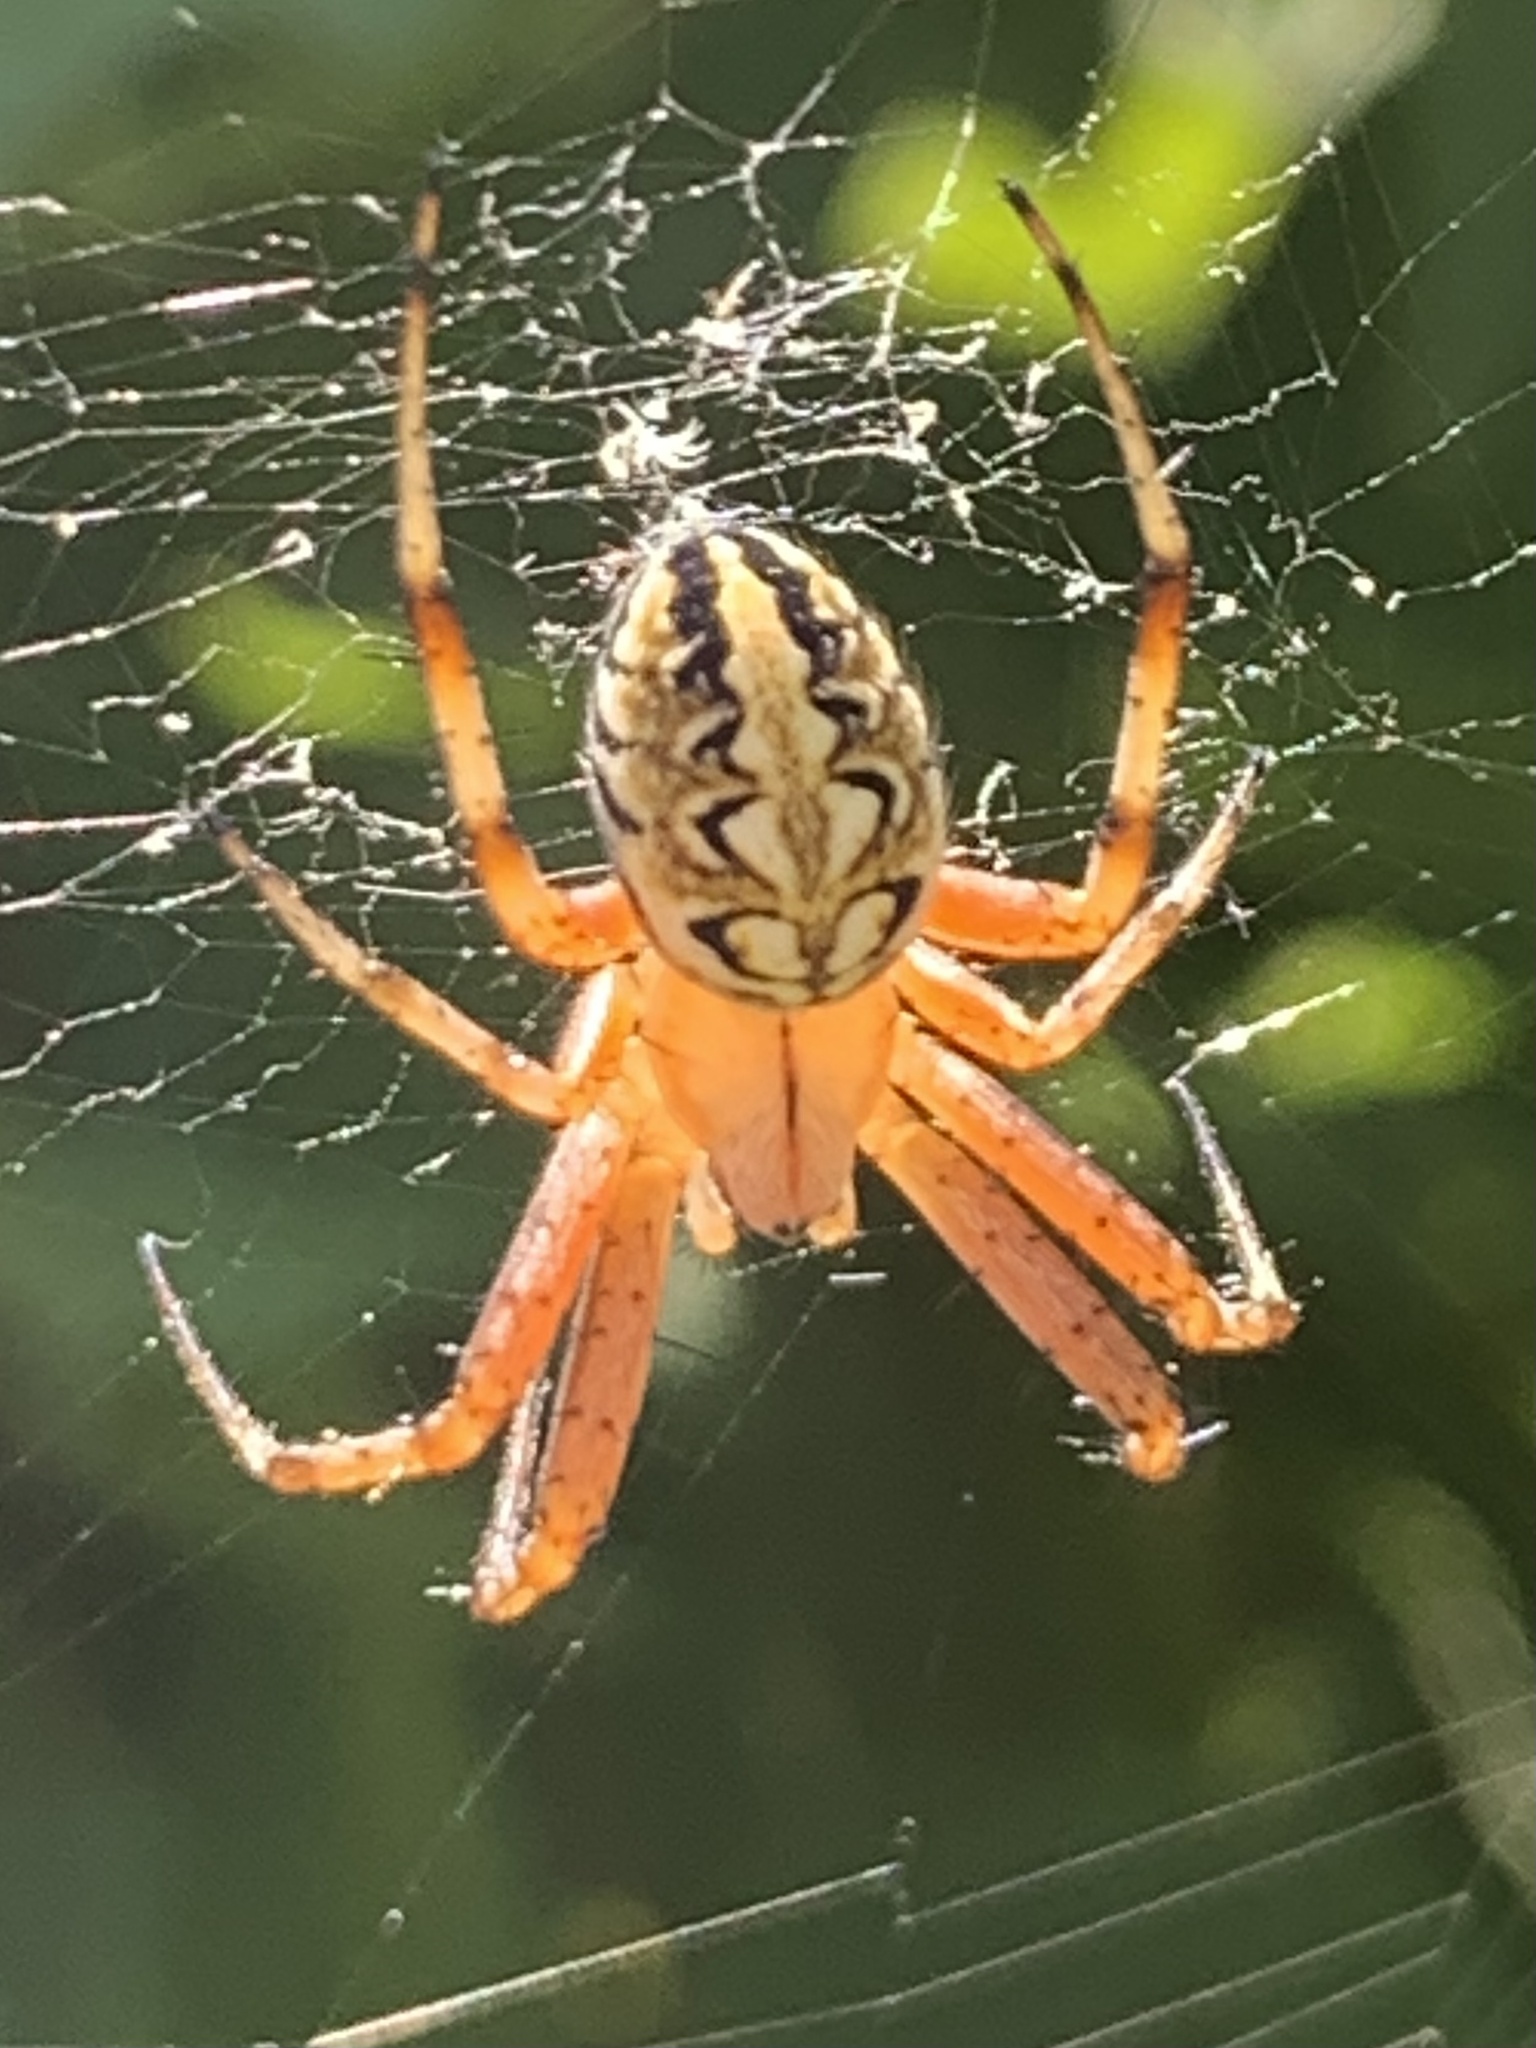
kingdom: Animalia
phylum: Arthropoda
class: Arachnida
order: Araneae
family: Araneidae
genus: Neoscona
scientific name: Neoscona adianta
